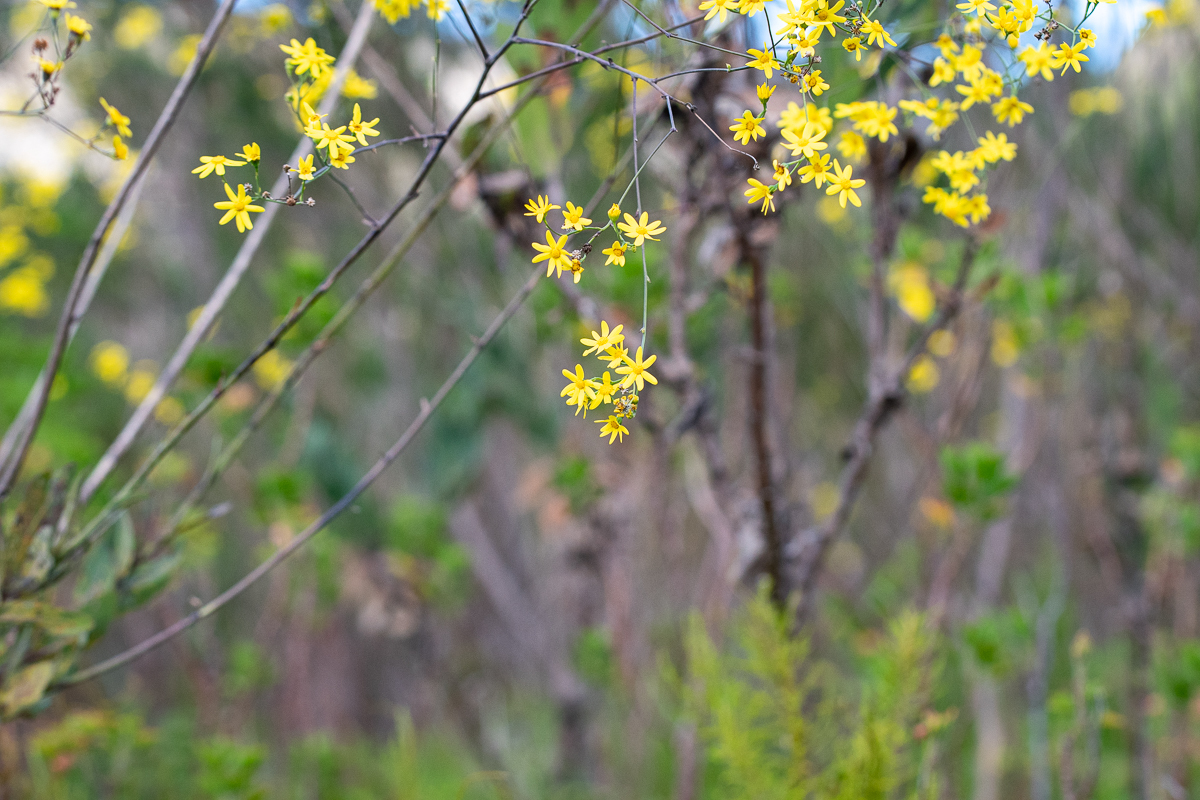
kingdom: Plantae
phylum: Tracheophyta
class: Magnoliopsida
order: Asterales
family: Asteraceae
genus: Othonna
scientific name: Othonna quinquedentata
